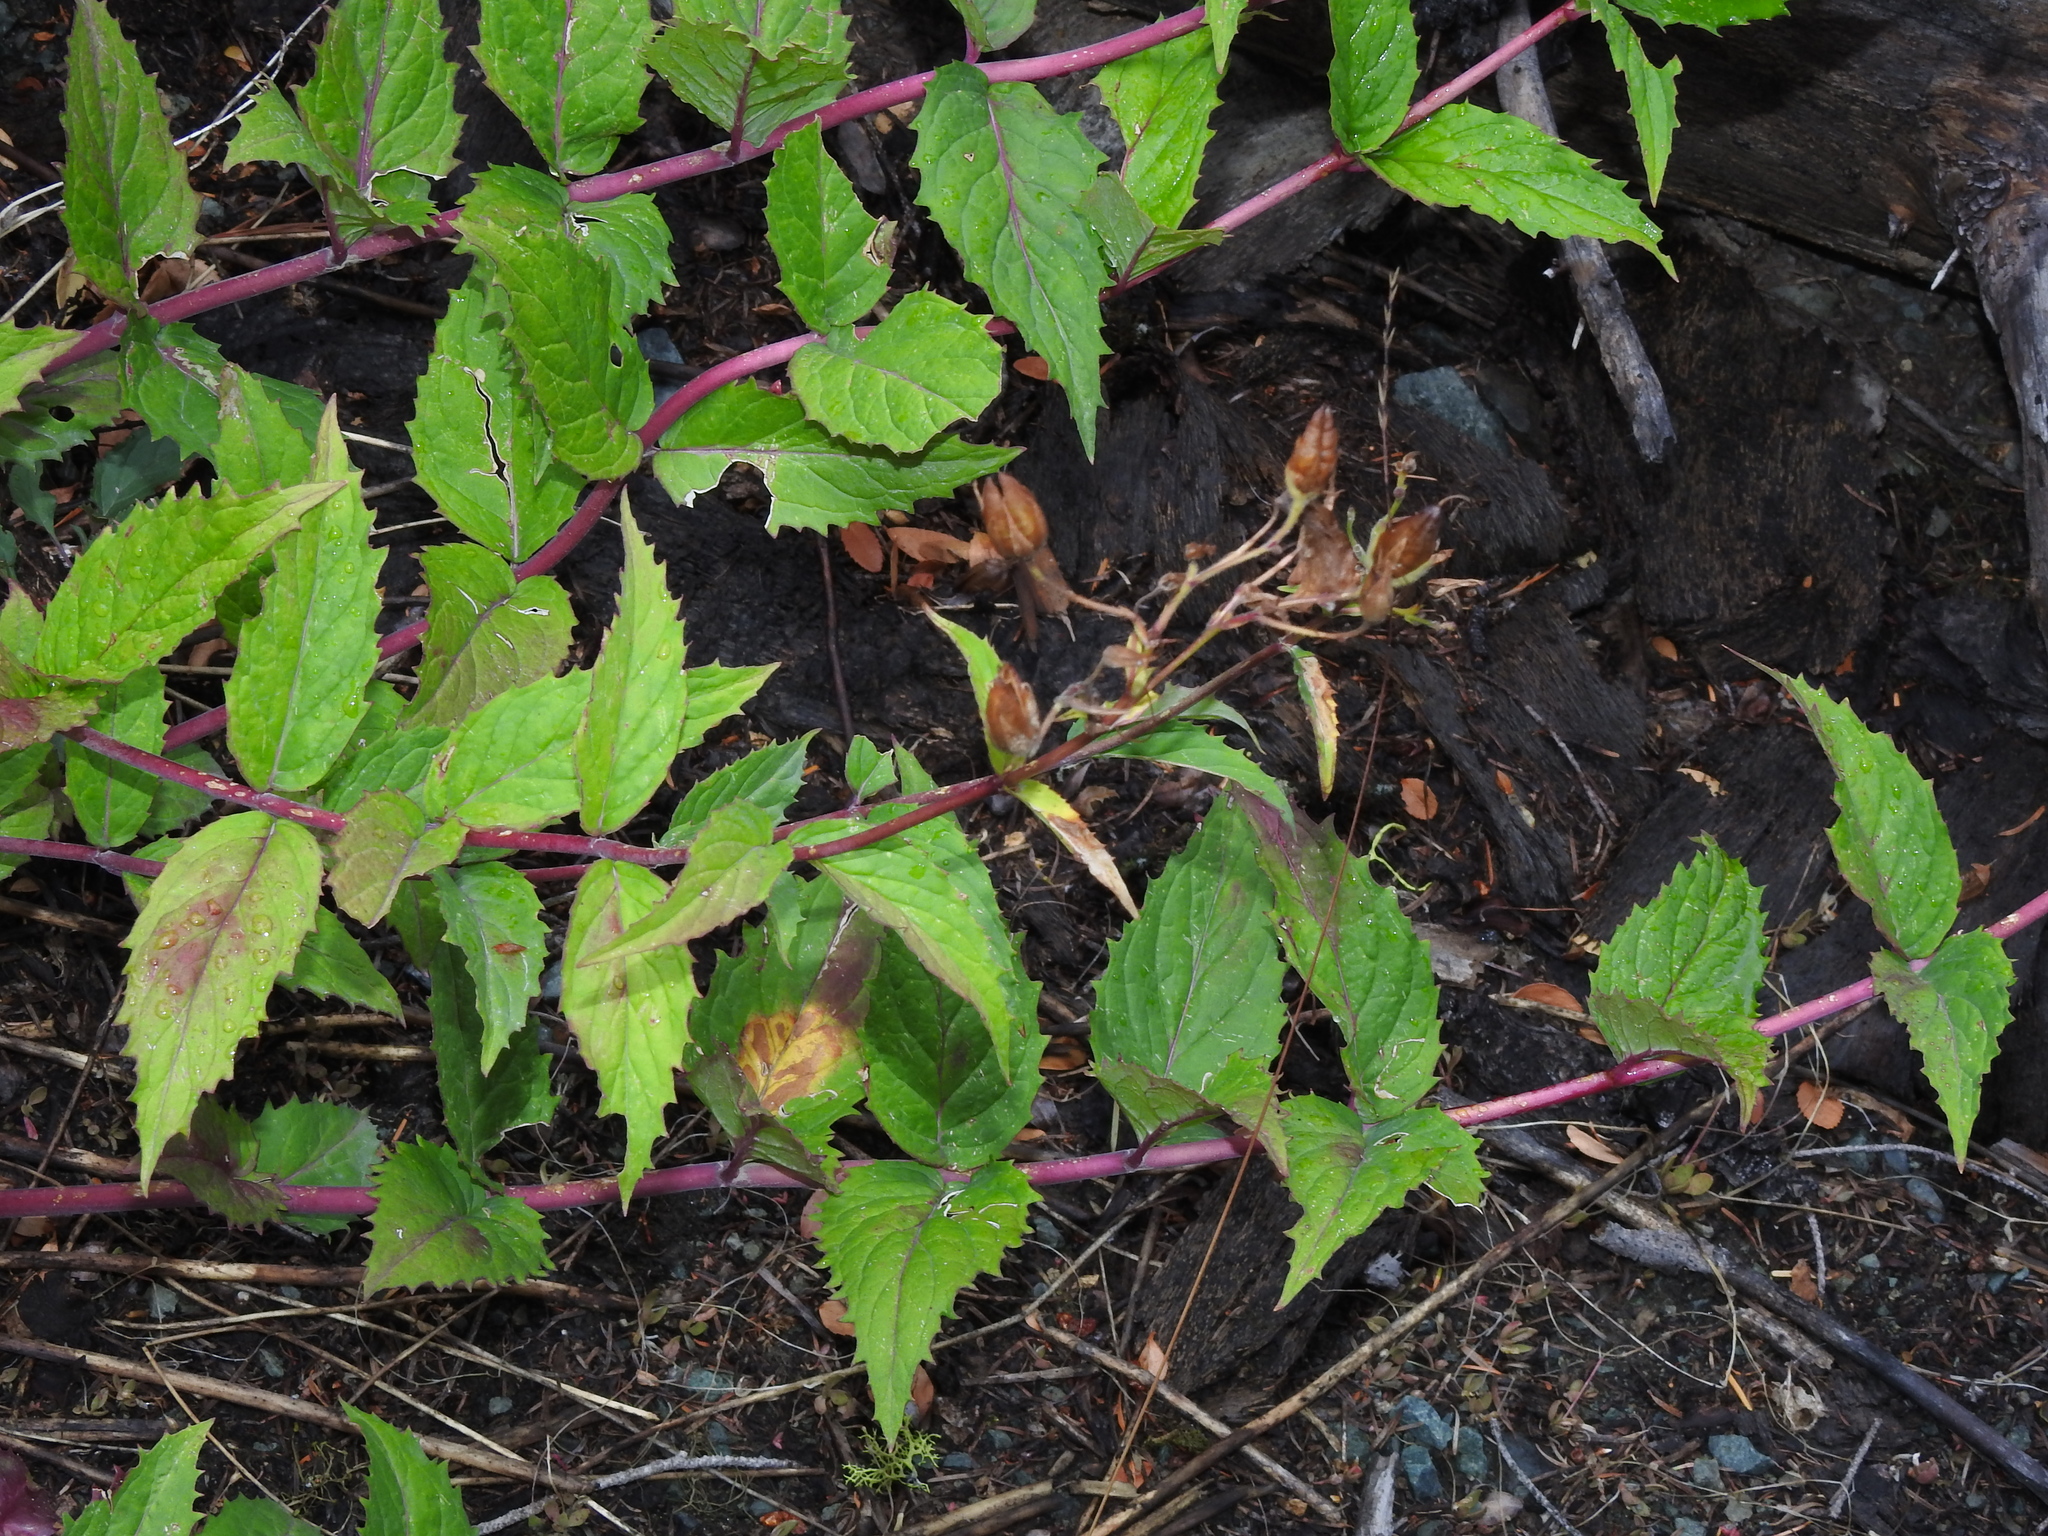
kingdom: Plantae
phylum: Tracheophyta
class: Magnoliopsida
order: Lamiales
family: Plantaginaceae
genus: Nothochelone
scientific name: Nothochelone nemorosa
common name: Woodland beardtongue
